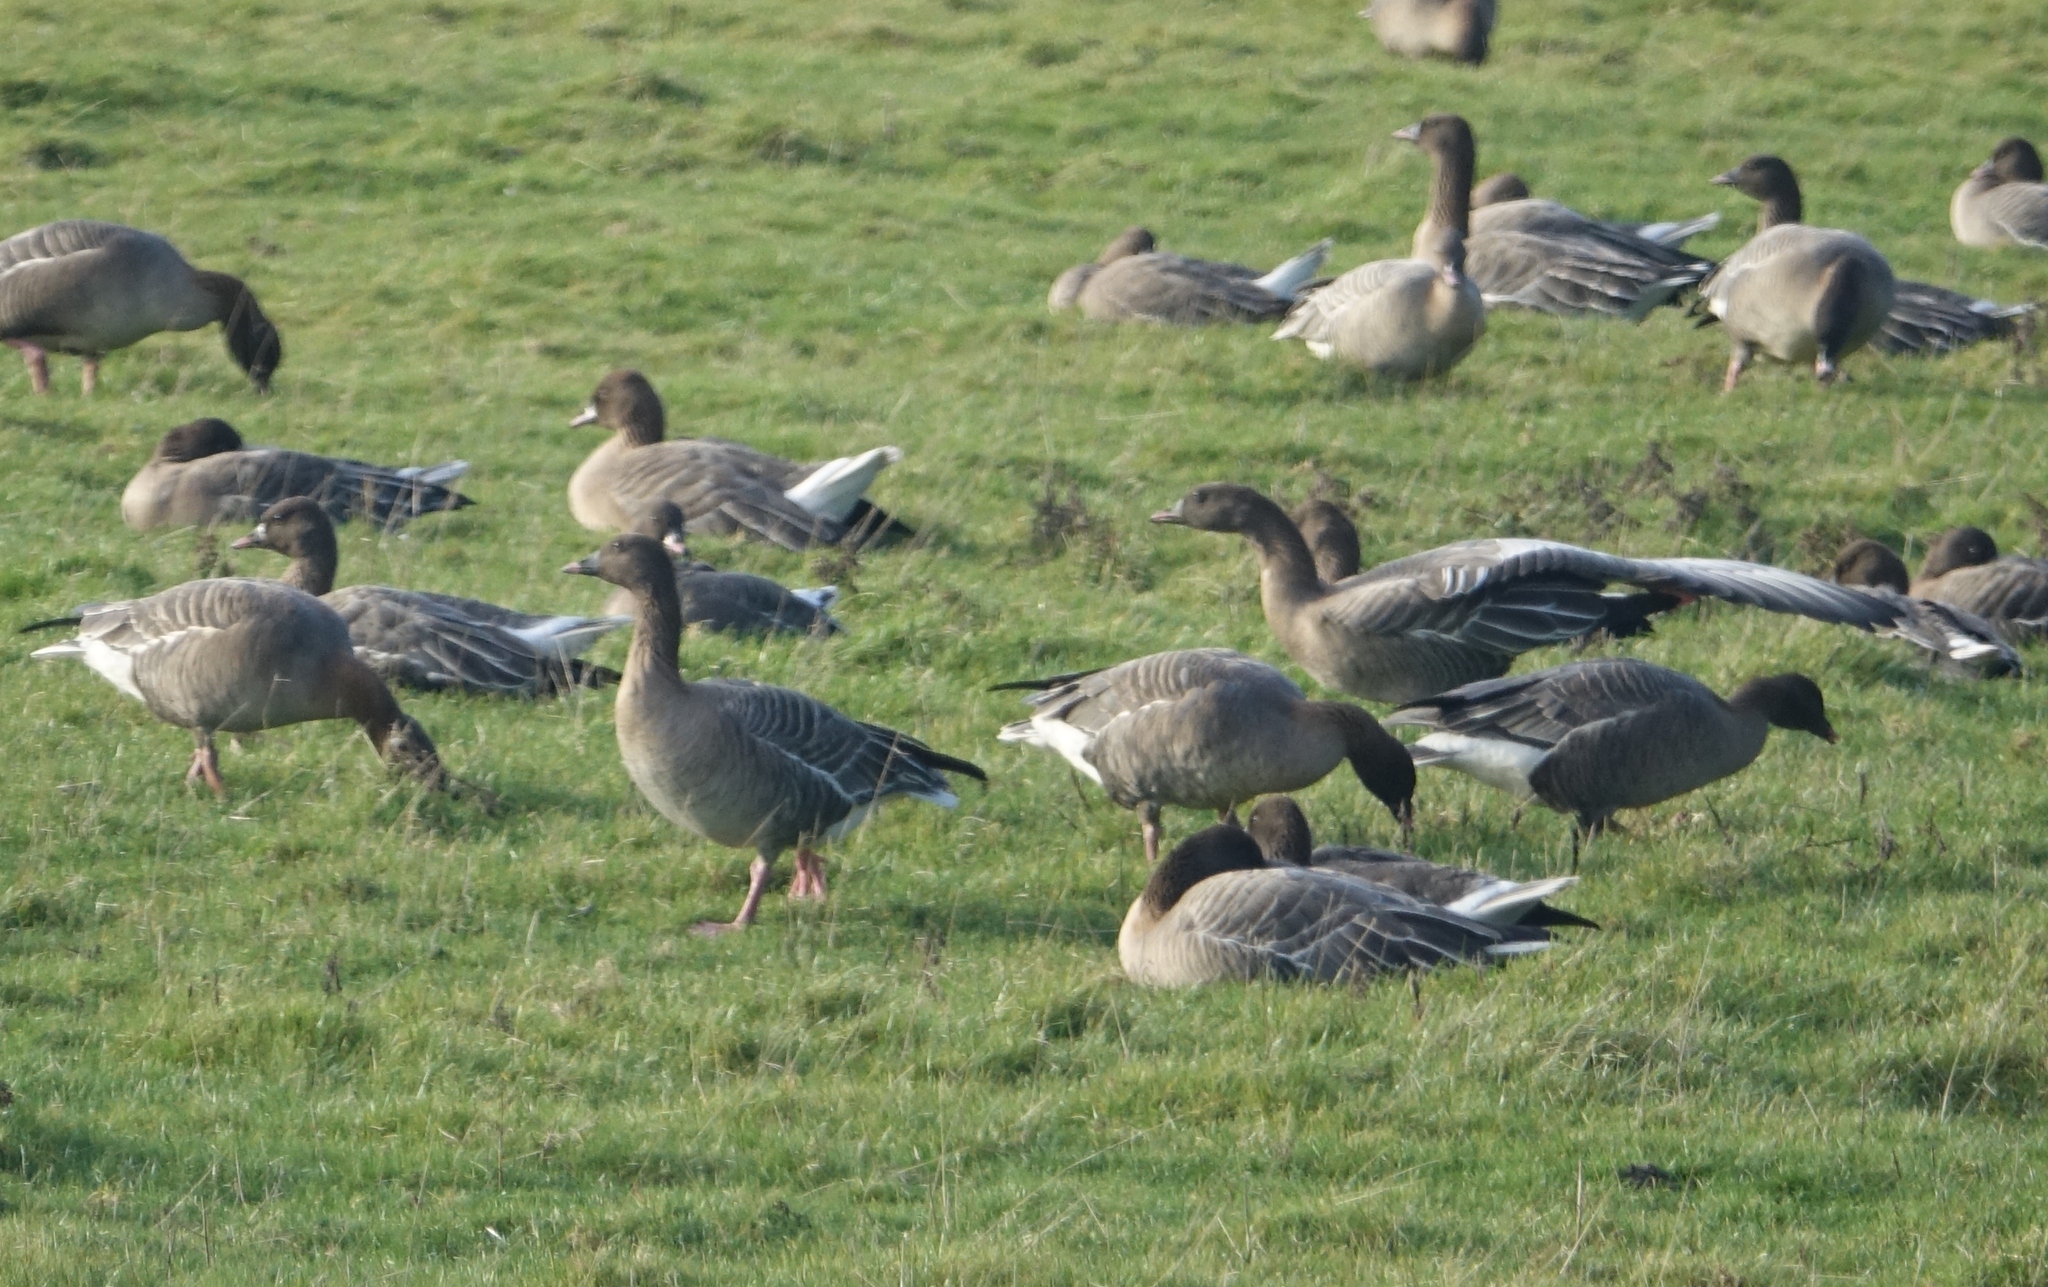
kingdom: Animalia
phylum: Chordata
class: Aves
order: Anseriformes
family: Anatidae
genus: Anser
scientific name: Anser brachyrhynchus
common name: Pink-footed goose
